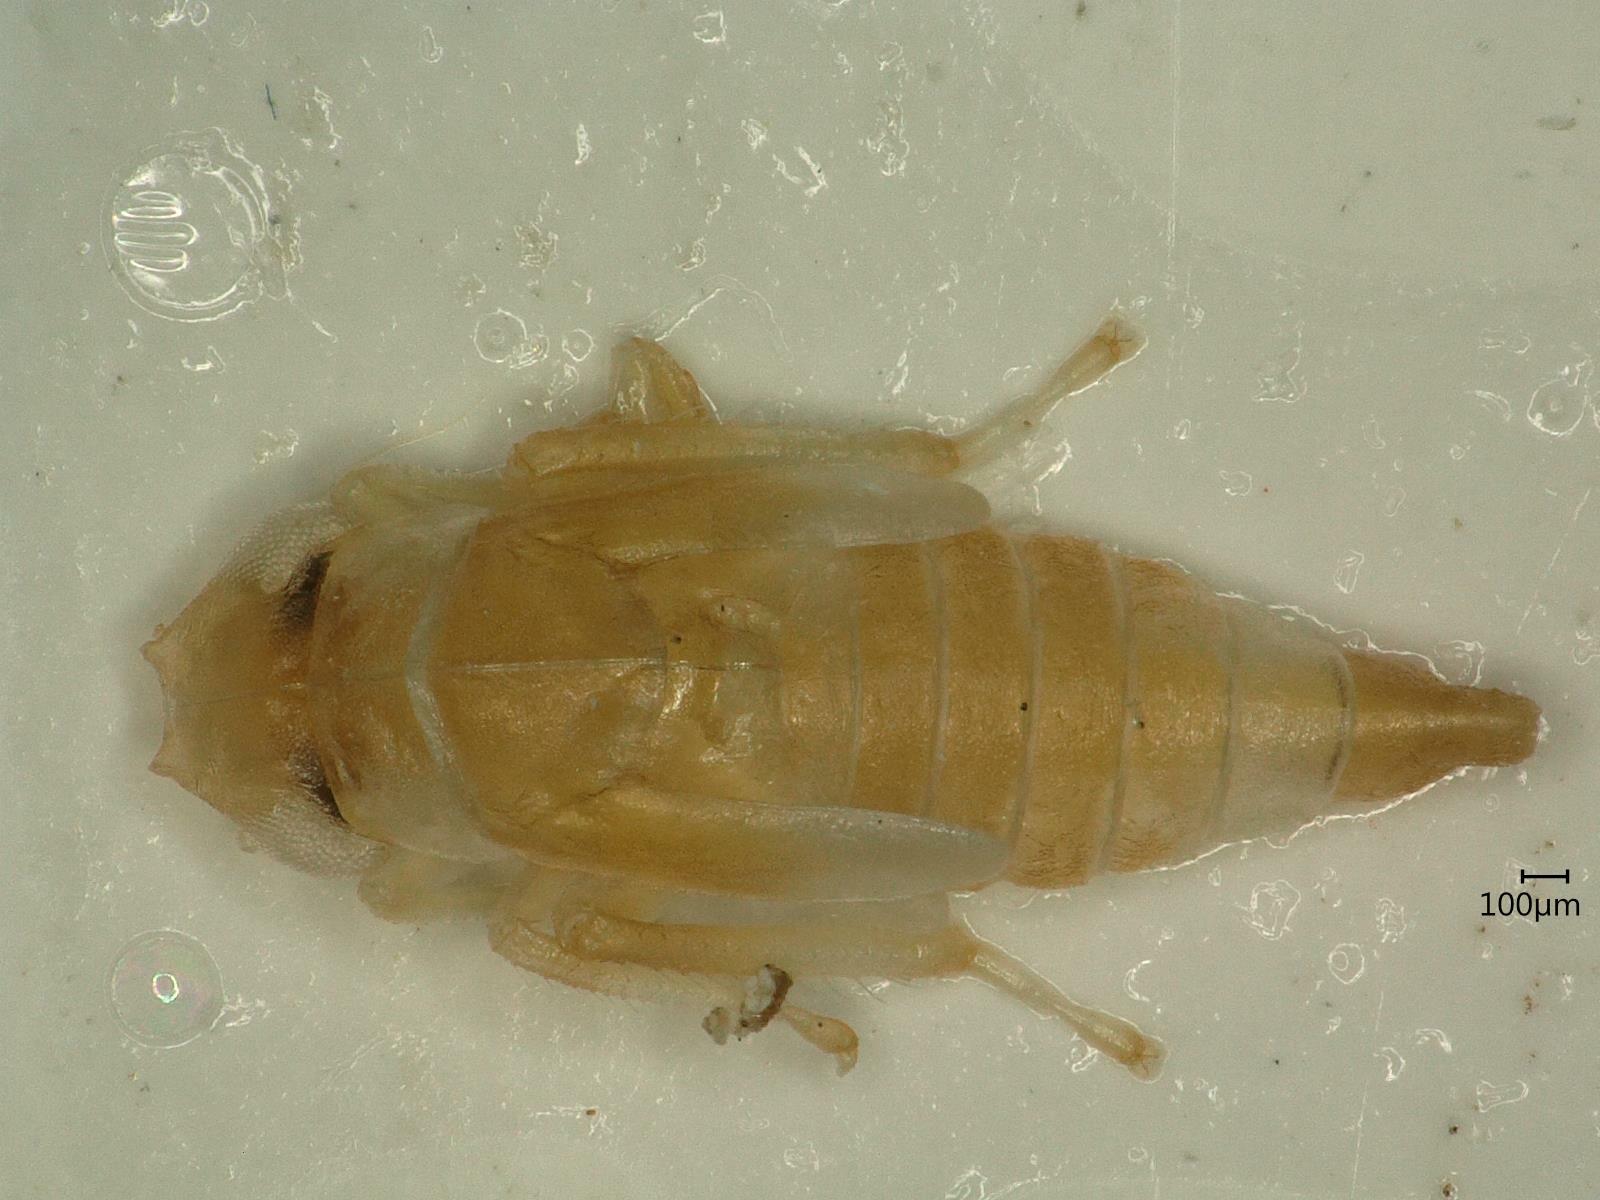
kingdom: Animalia
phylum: Arthropoda
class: Insecta
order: Hemiptera
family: Cicadellidae
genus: Eupterycyba
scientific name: Eupterycyba jucunda
